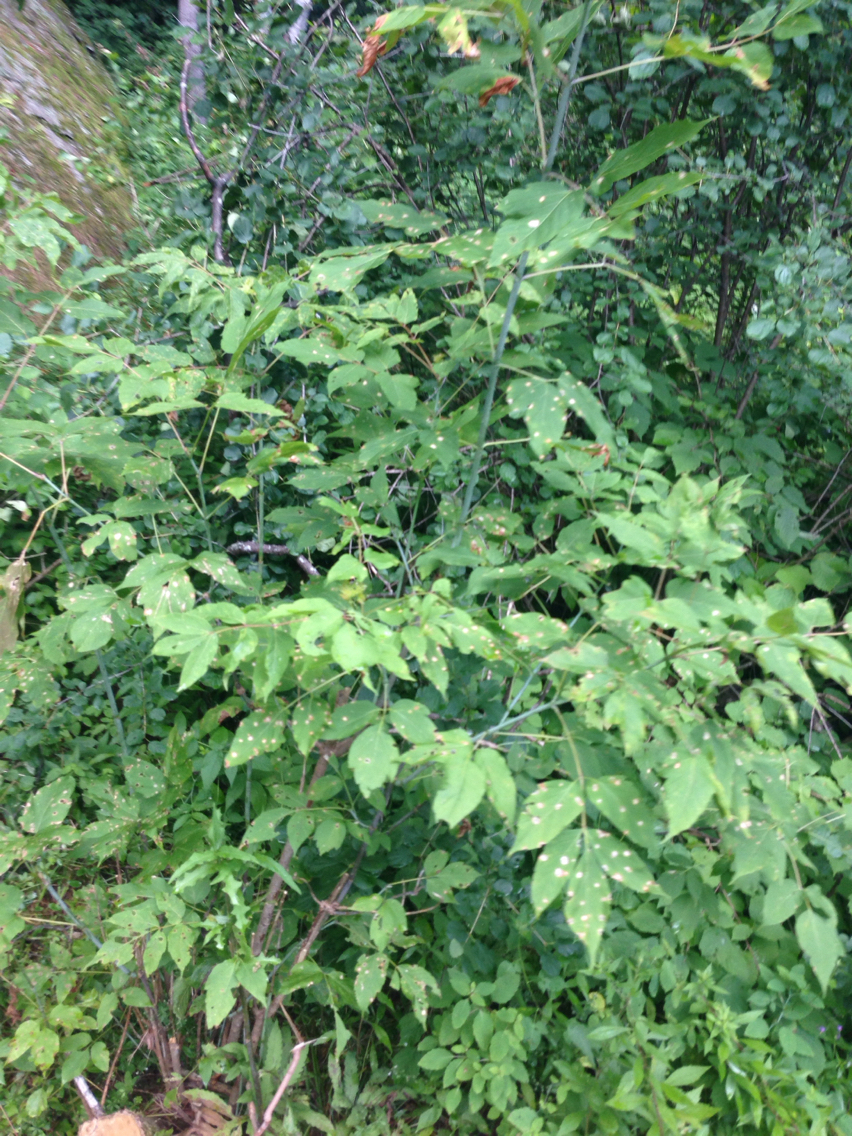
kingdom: Plantae
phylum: Tracheophyta
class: Magnoliopsida
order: Sapindales
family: Sapindaceae
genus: Acer
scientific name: Acer negundo
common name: Ashleaf maple
